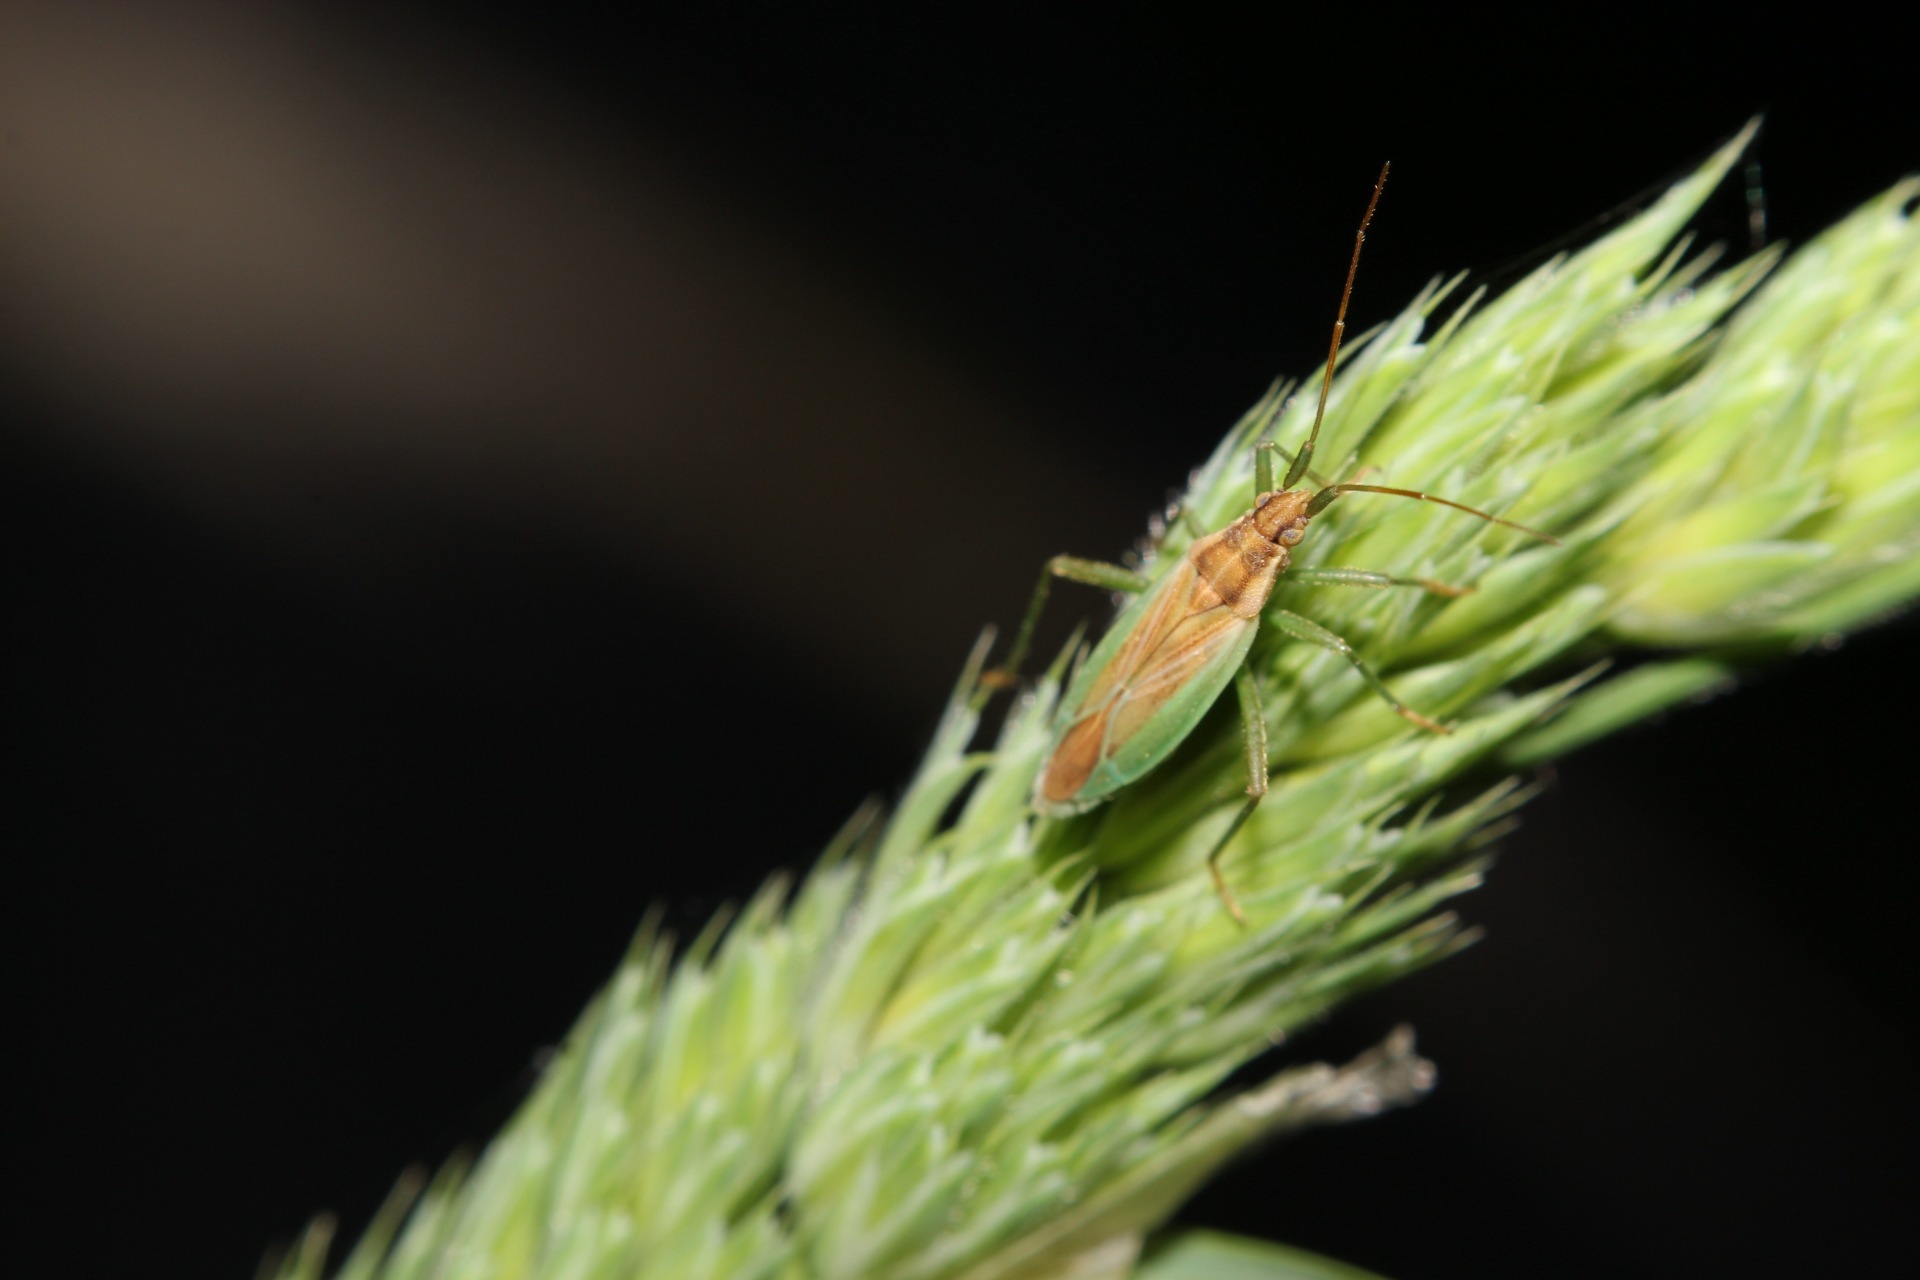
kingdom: Animalia
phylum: Arthropoda
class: Insecta
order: Hemiptera
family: Miridae
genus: Stenodema
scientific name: Stenodema holsata
